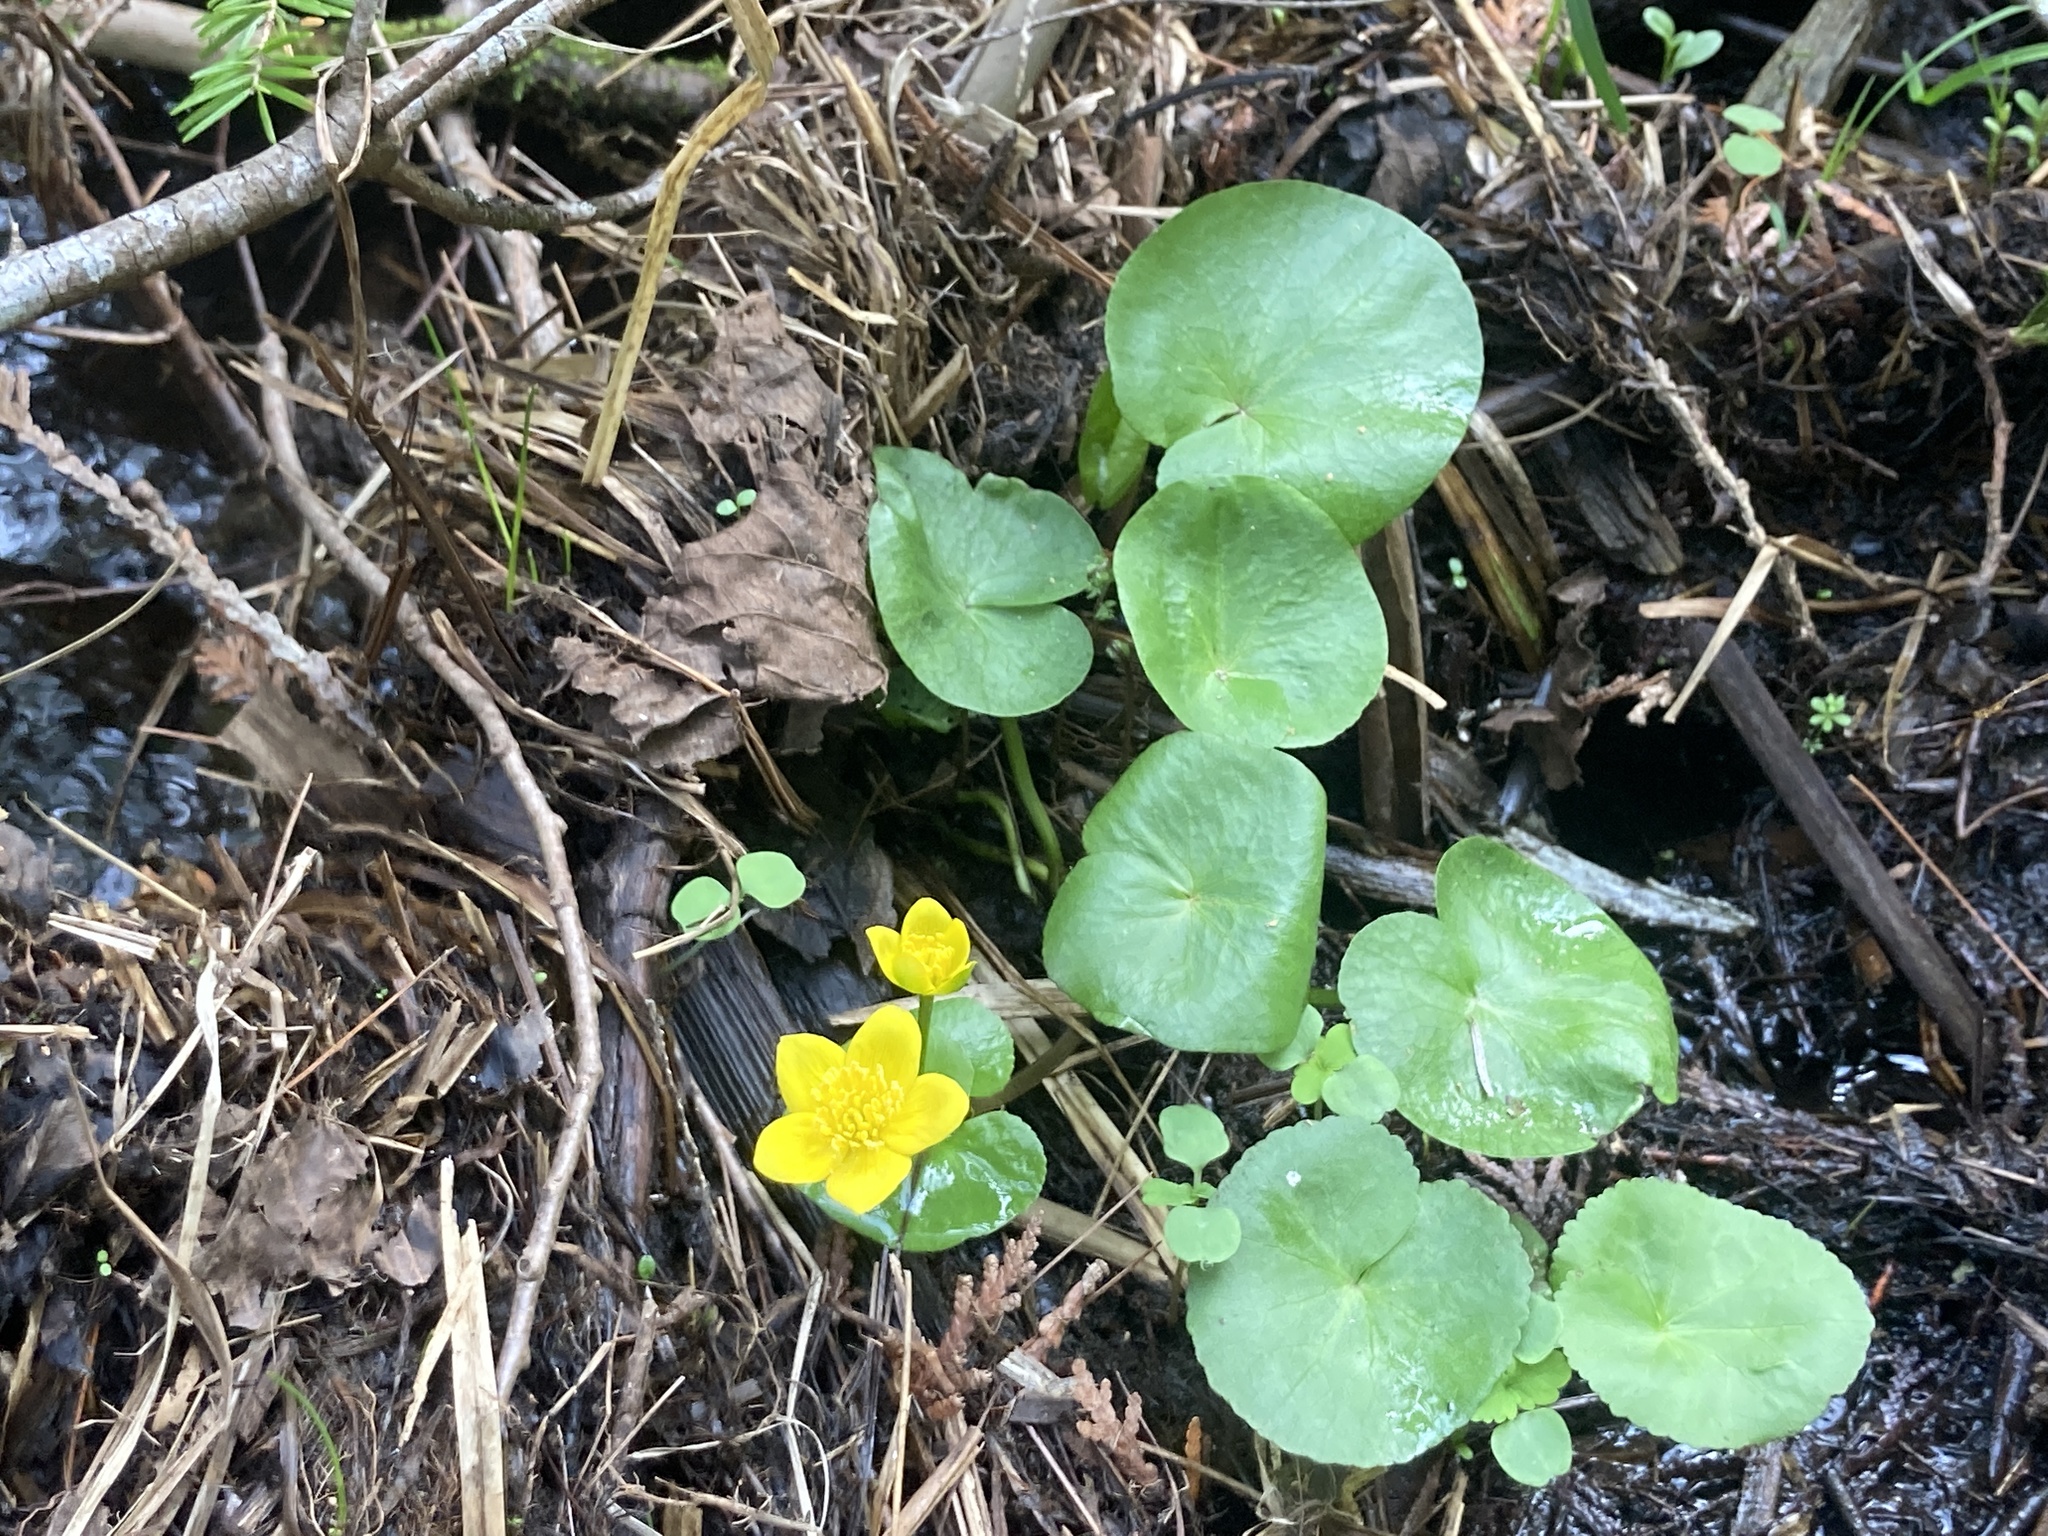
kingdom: Plantae
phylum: Tracheophyta
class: Magnoliopsida
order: Ranunculales
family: Ranunculaceae
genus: Caltha
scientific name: Caltha palustris
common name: Marsh marigold
